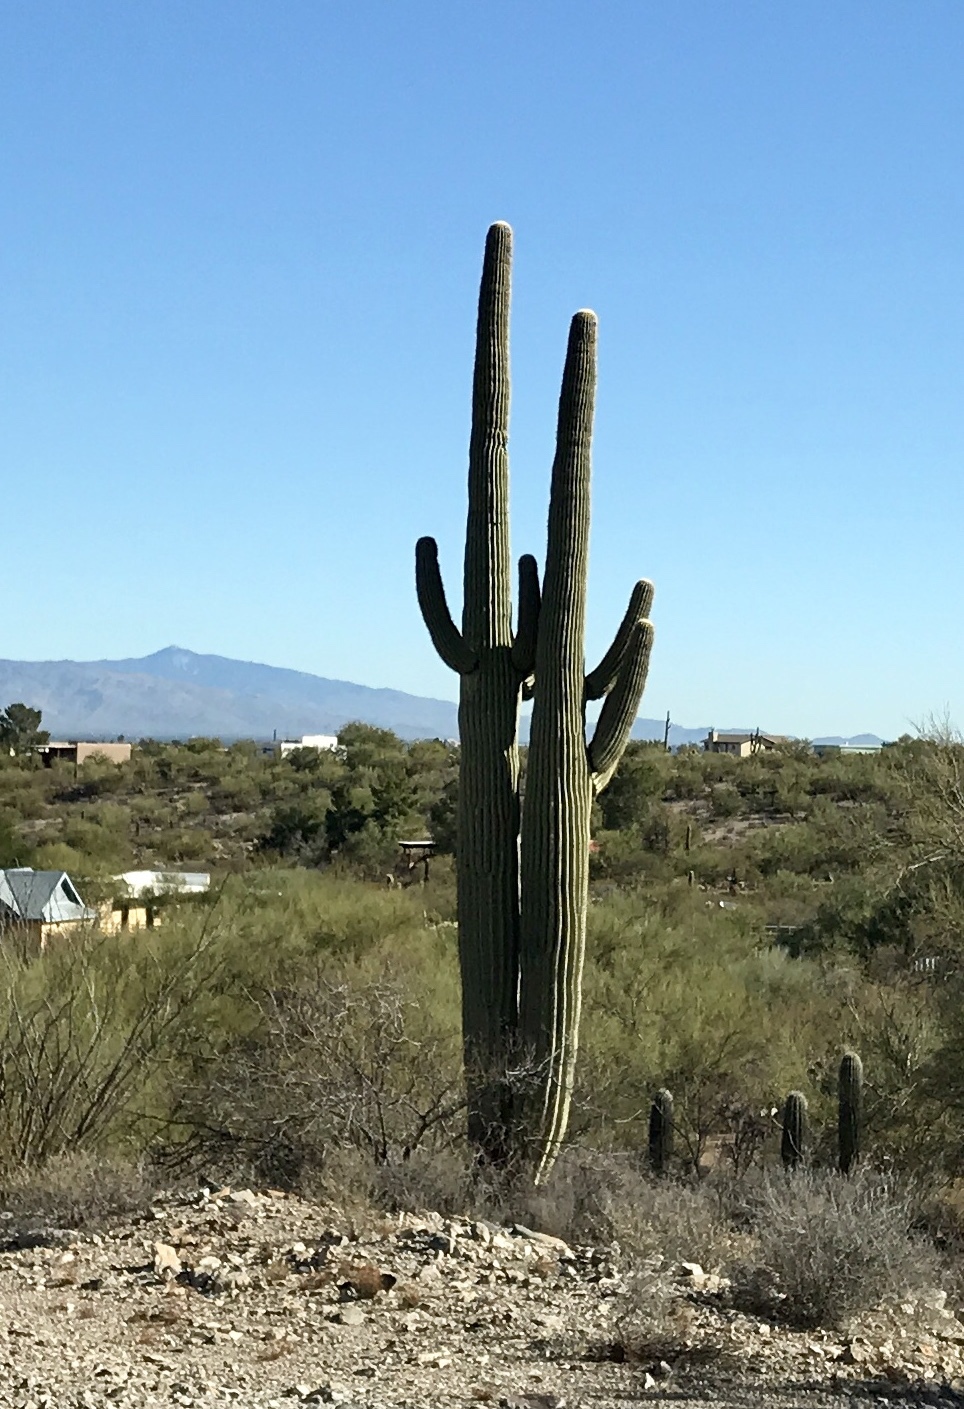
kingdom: Plantae
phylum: Tracheophyta
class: Magnoliopsida
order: Caryophyllales
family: Cactaceae
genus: Carnegiea
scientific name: Carnegiea gigantea
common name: Saguaro
